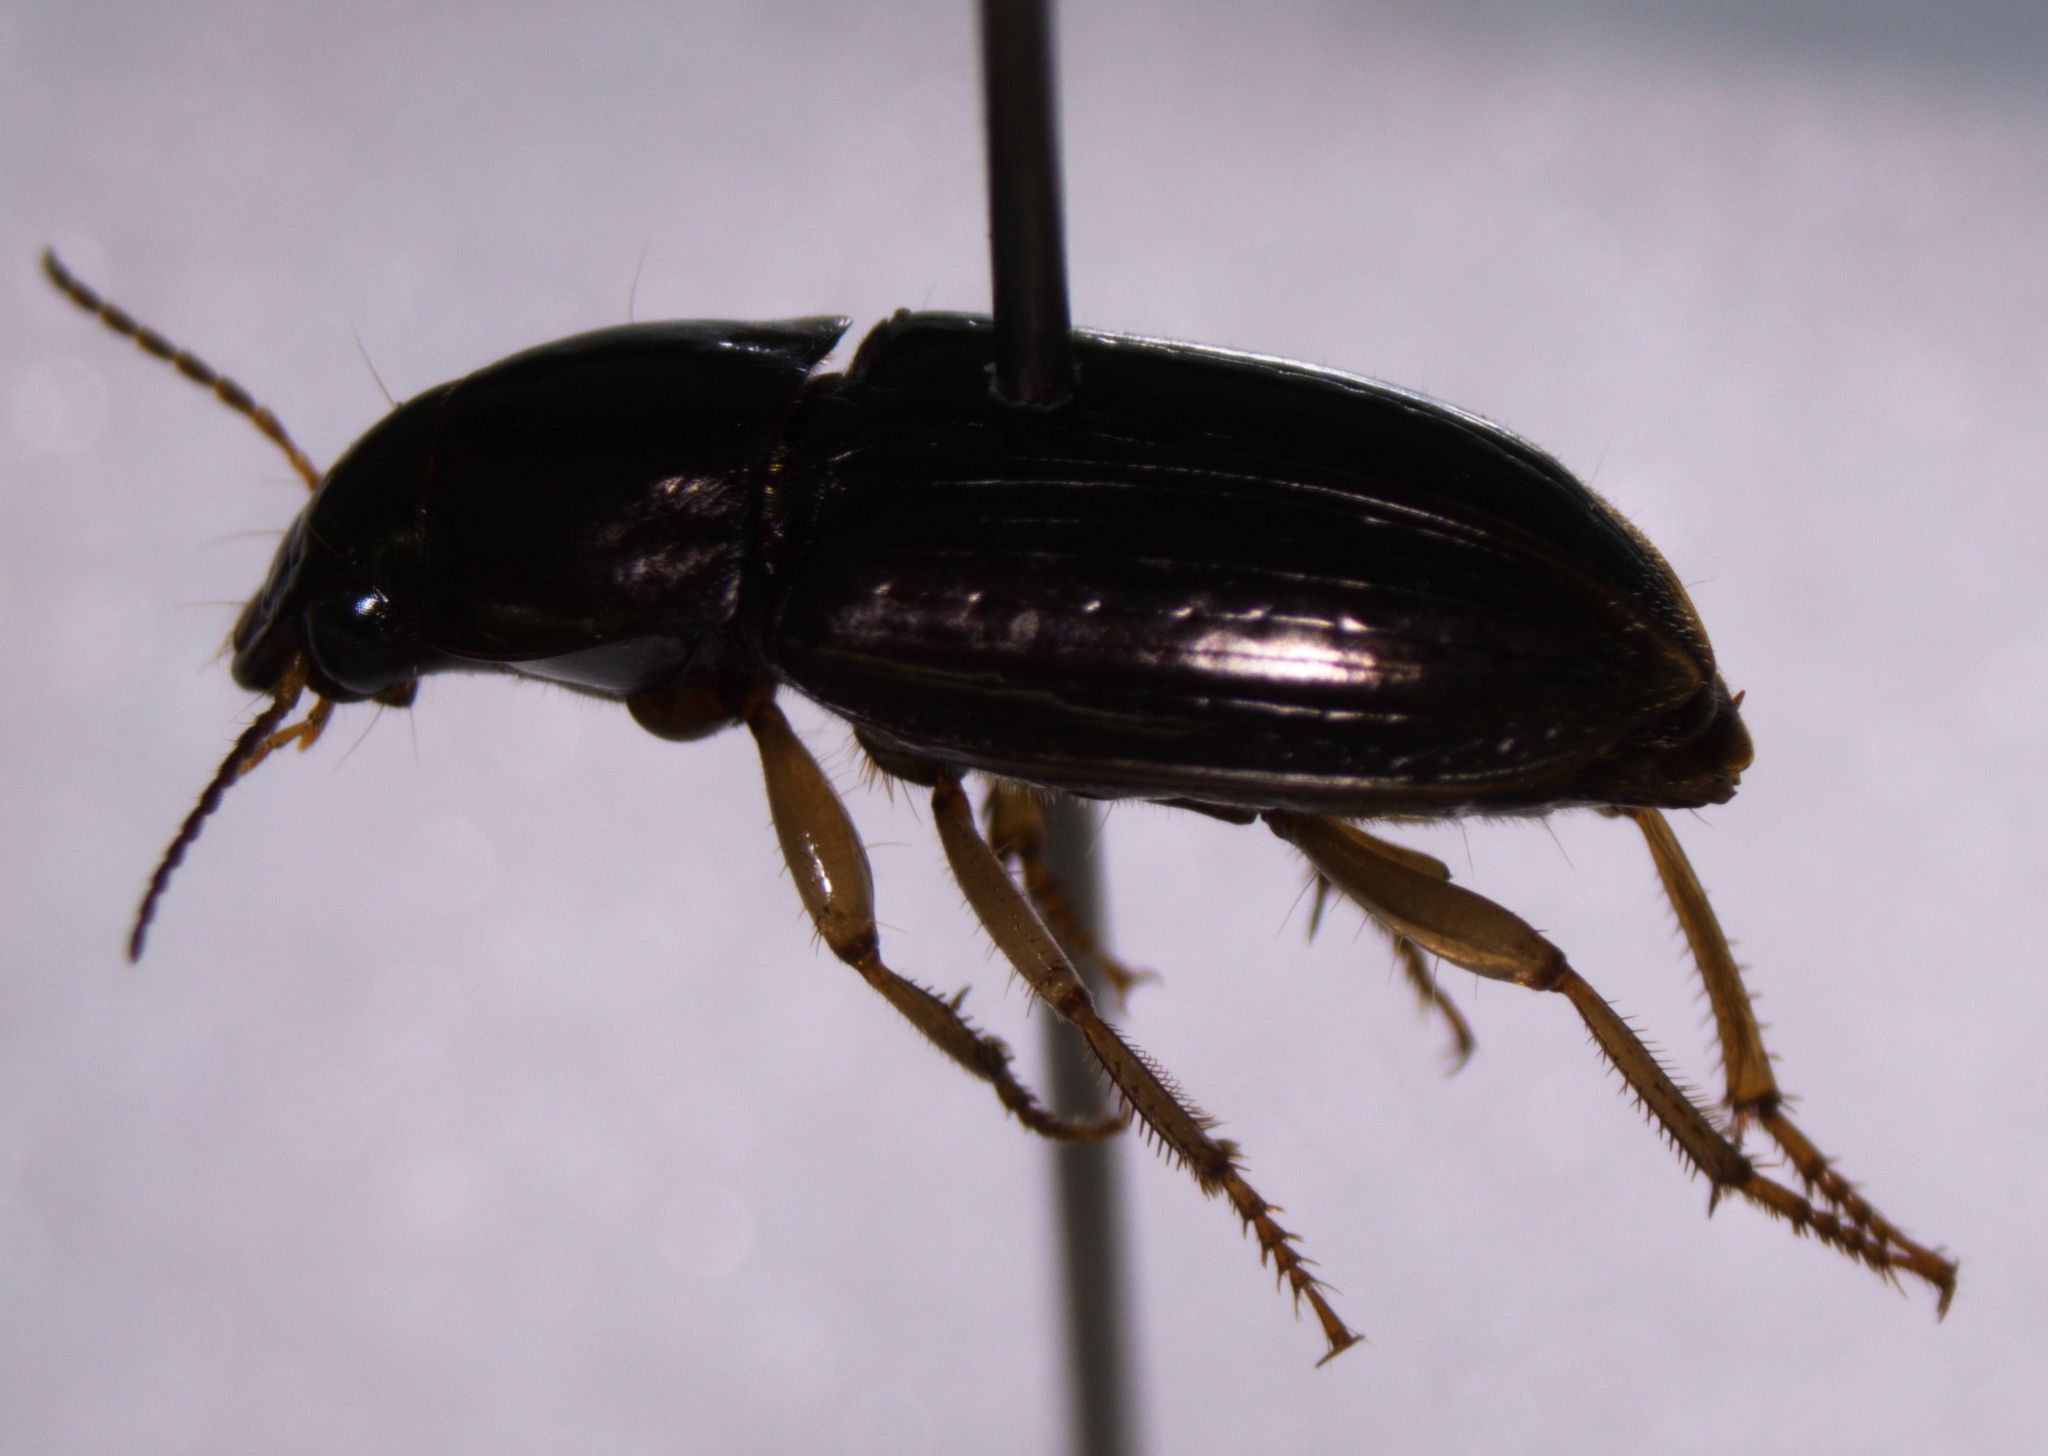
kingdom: Animalia
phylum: Arthropoda
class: Insecta
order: Coleoptera
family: Carabidae
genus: Selenophorus
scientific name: Selenophorus pyritosus
